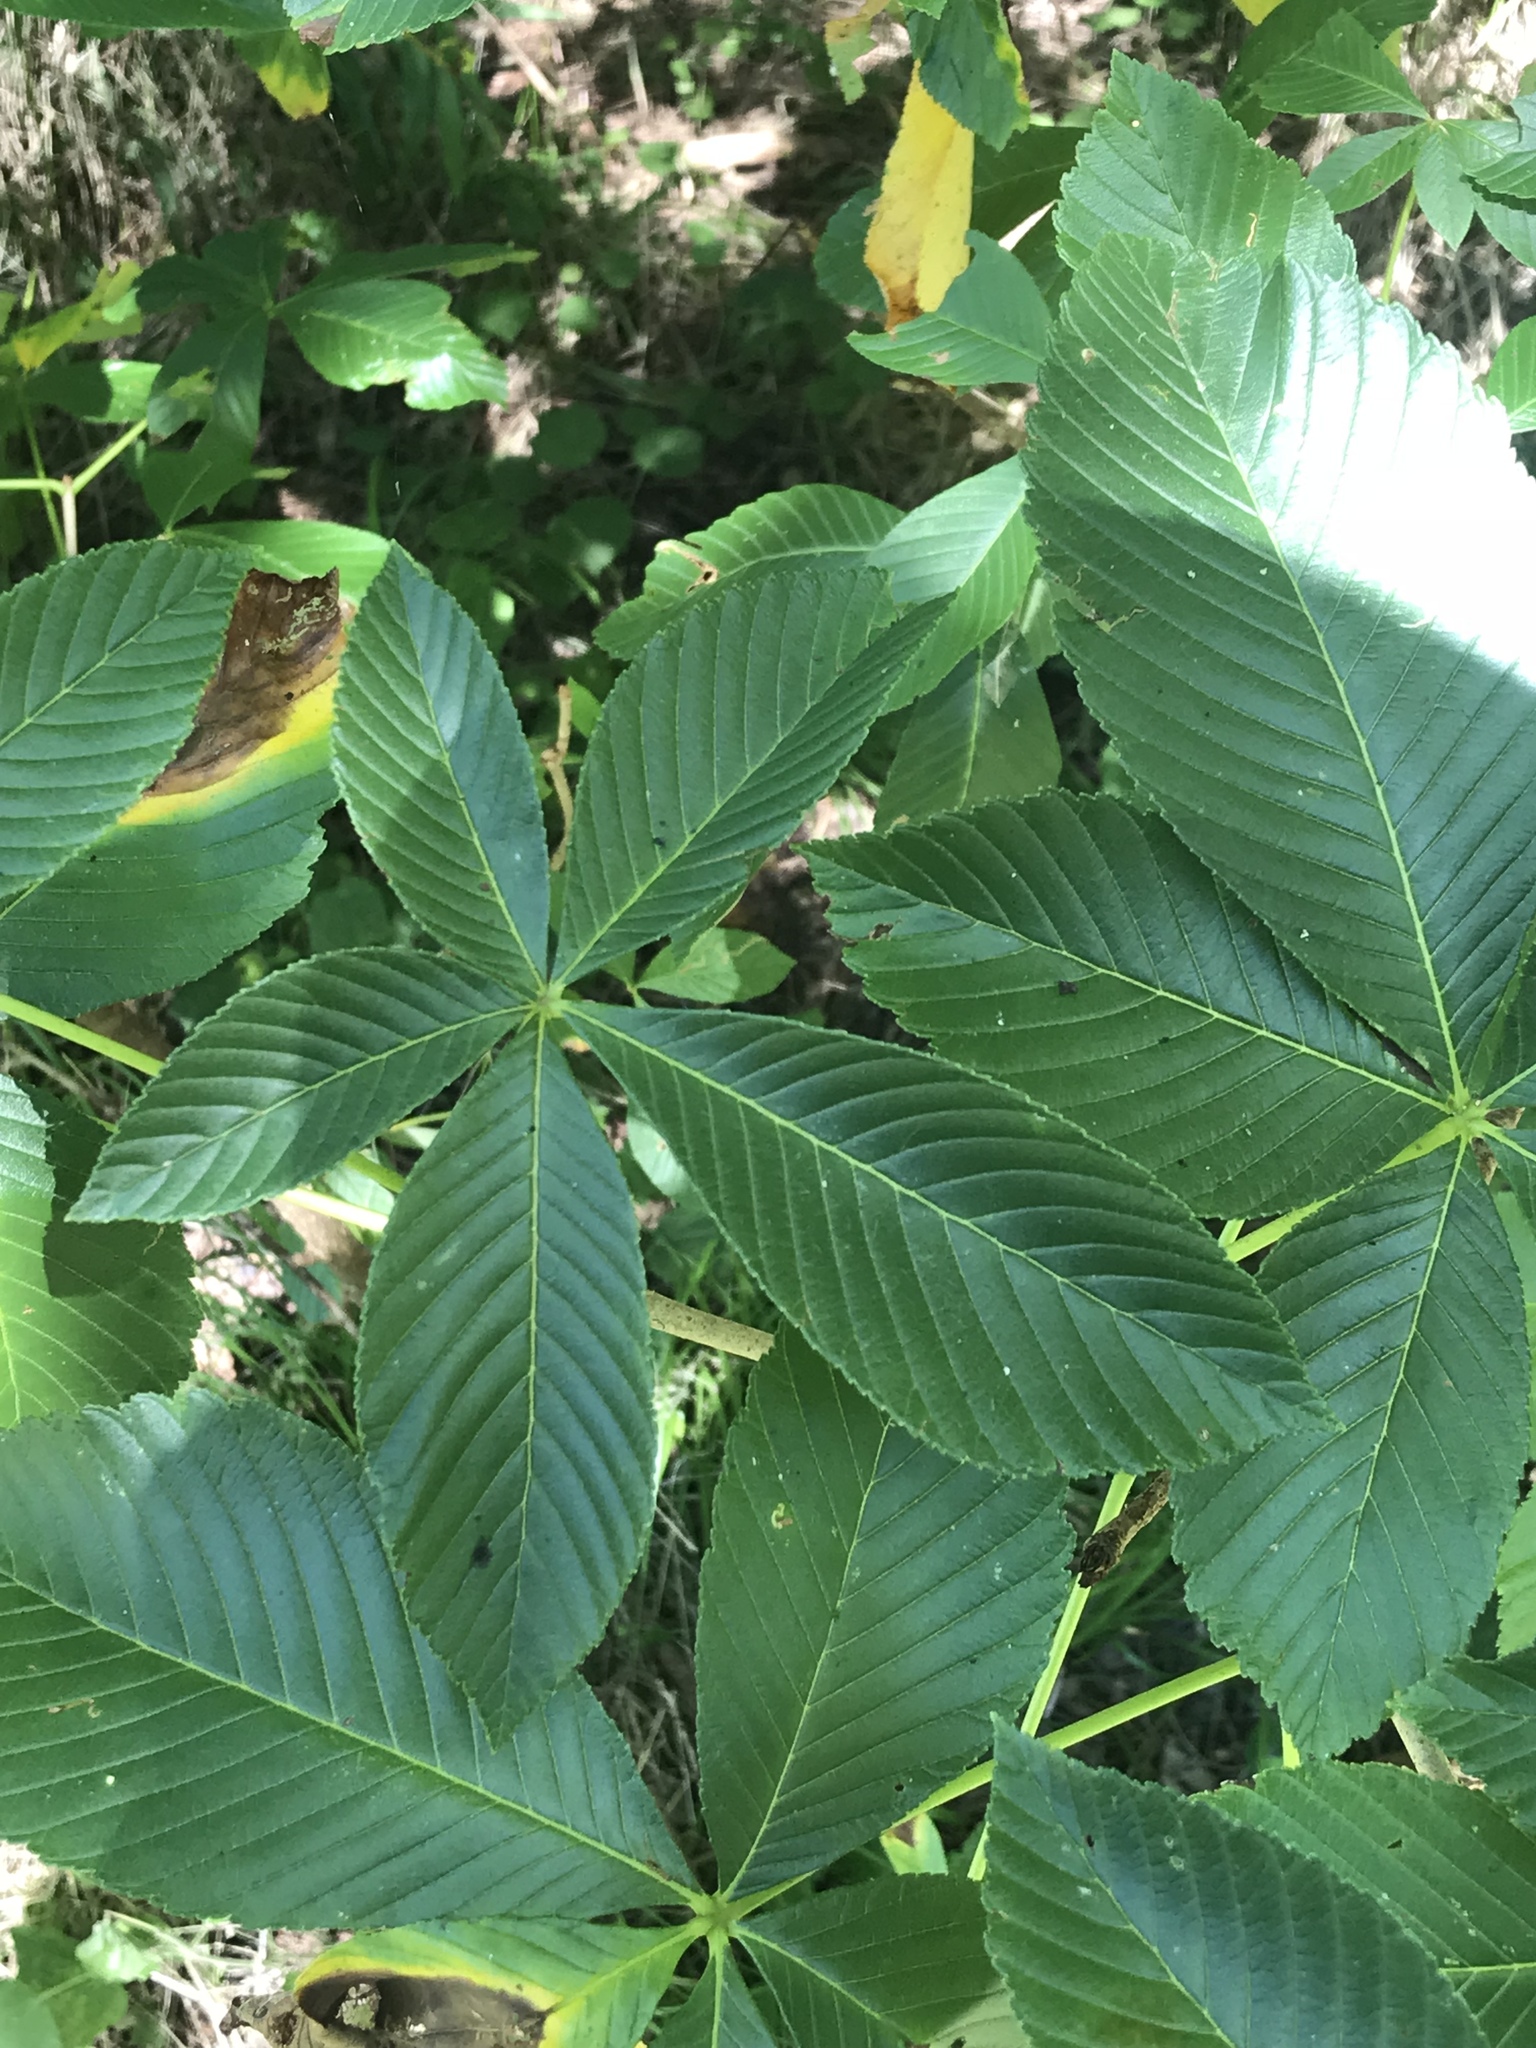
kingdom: Plantae
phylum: Tracheophyta
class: Magnoliopsida
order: Sapindales
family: Sapindaceae
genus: Aesculus
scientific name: Aesculus pavia
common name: Red buckeye
